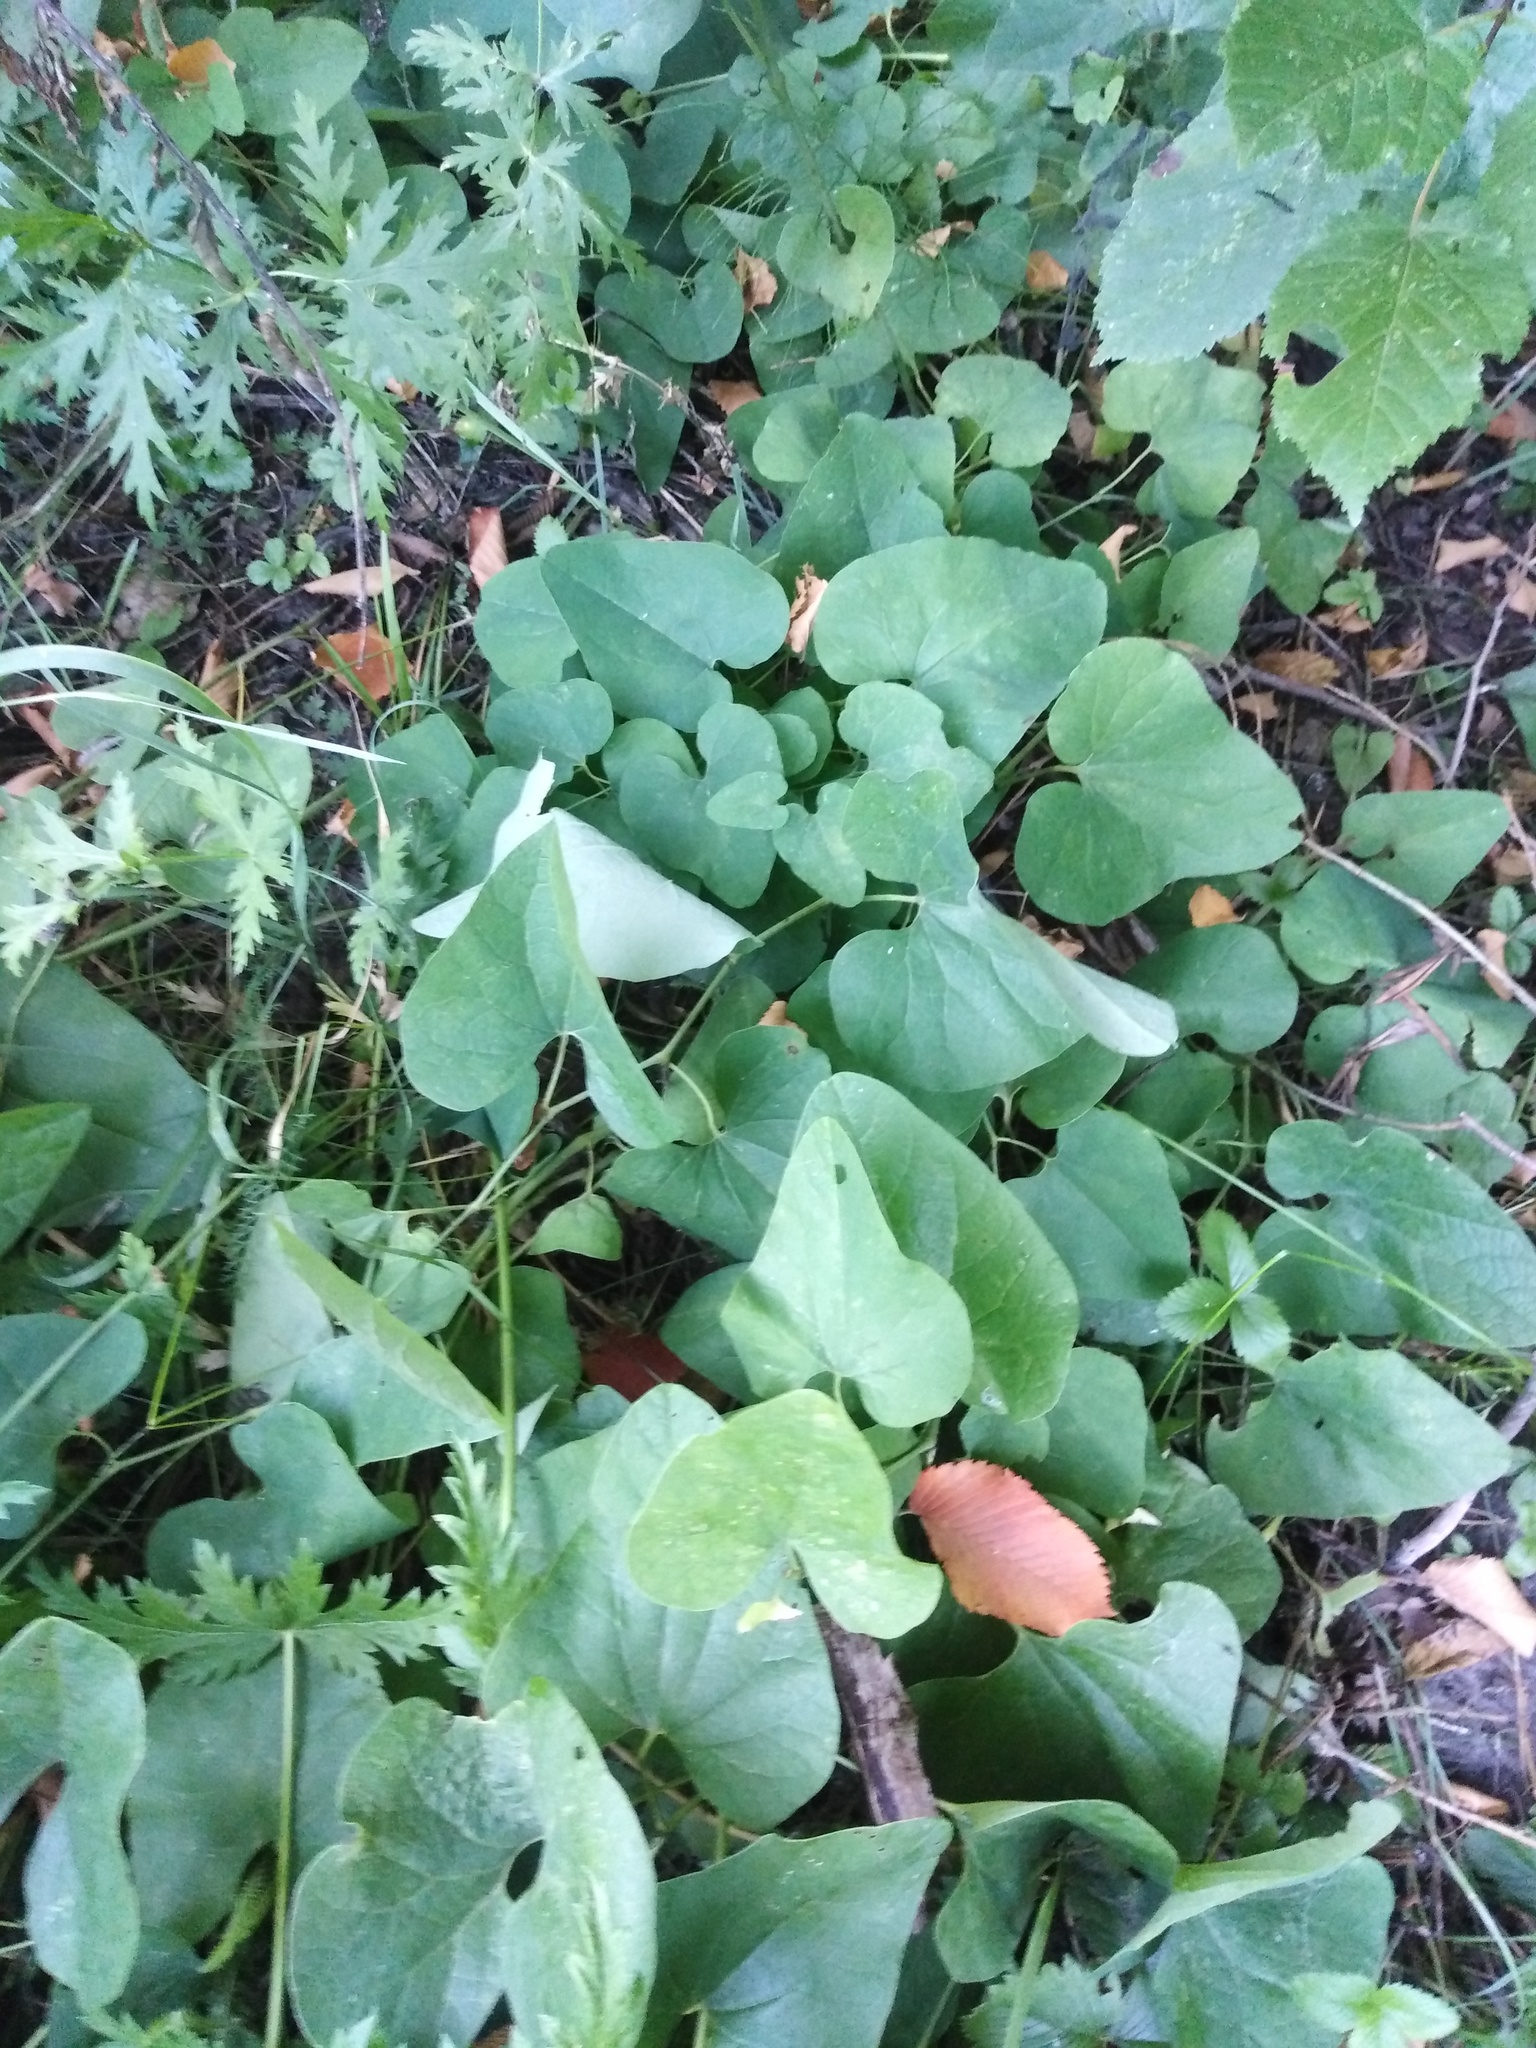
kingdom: Plantae
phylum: Tracheophyta
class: Magnoliopsida
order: Piperales
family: Aristolochiaceae
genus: Aristolochia
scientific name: Aristolochia clematitis
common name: Birthwort
